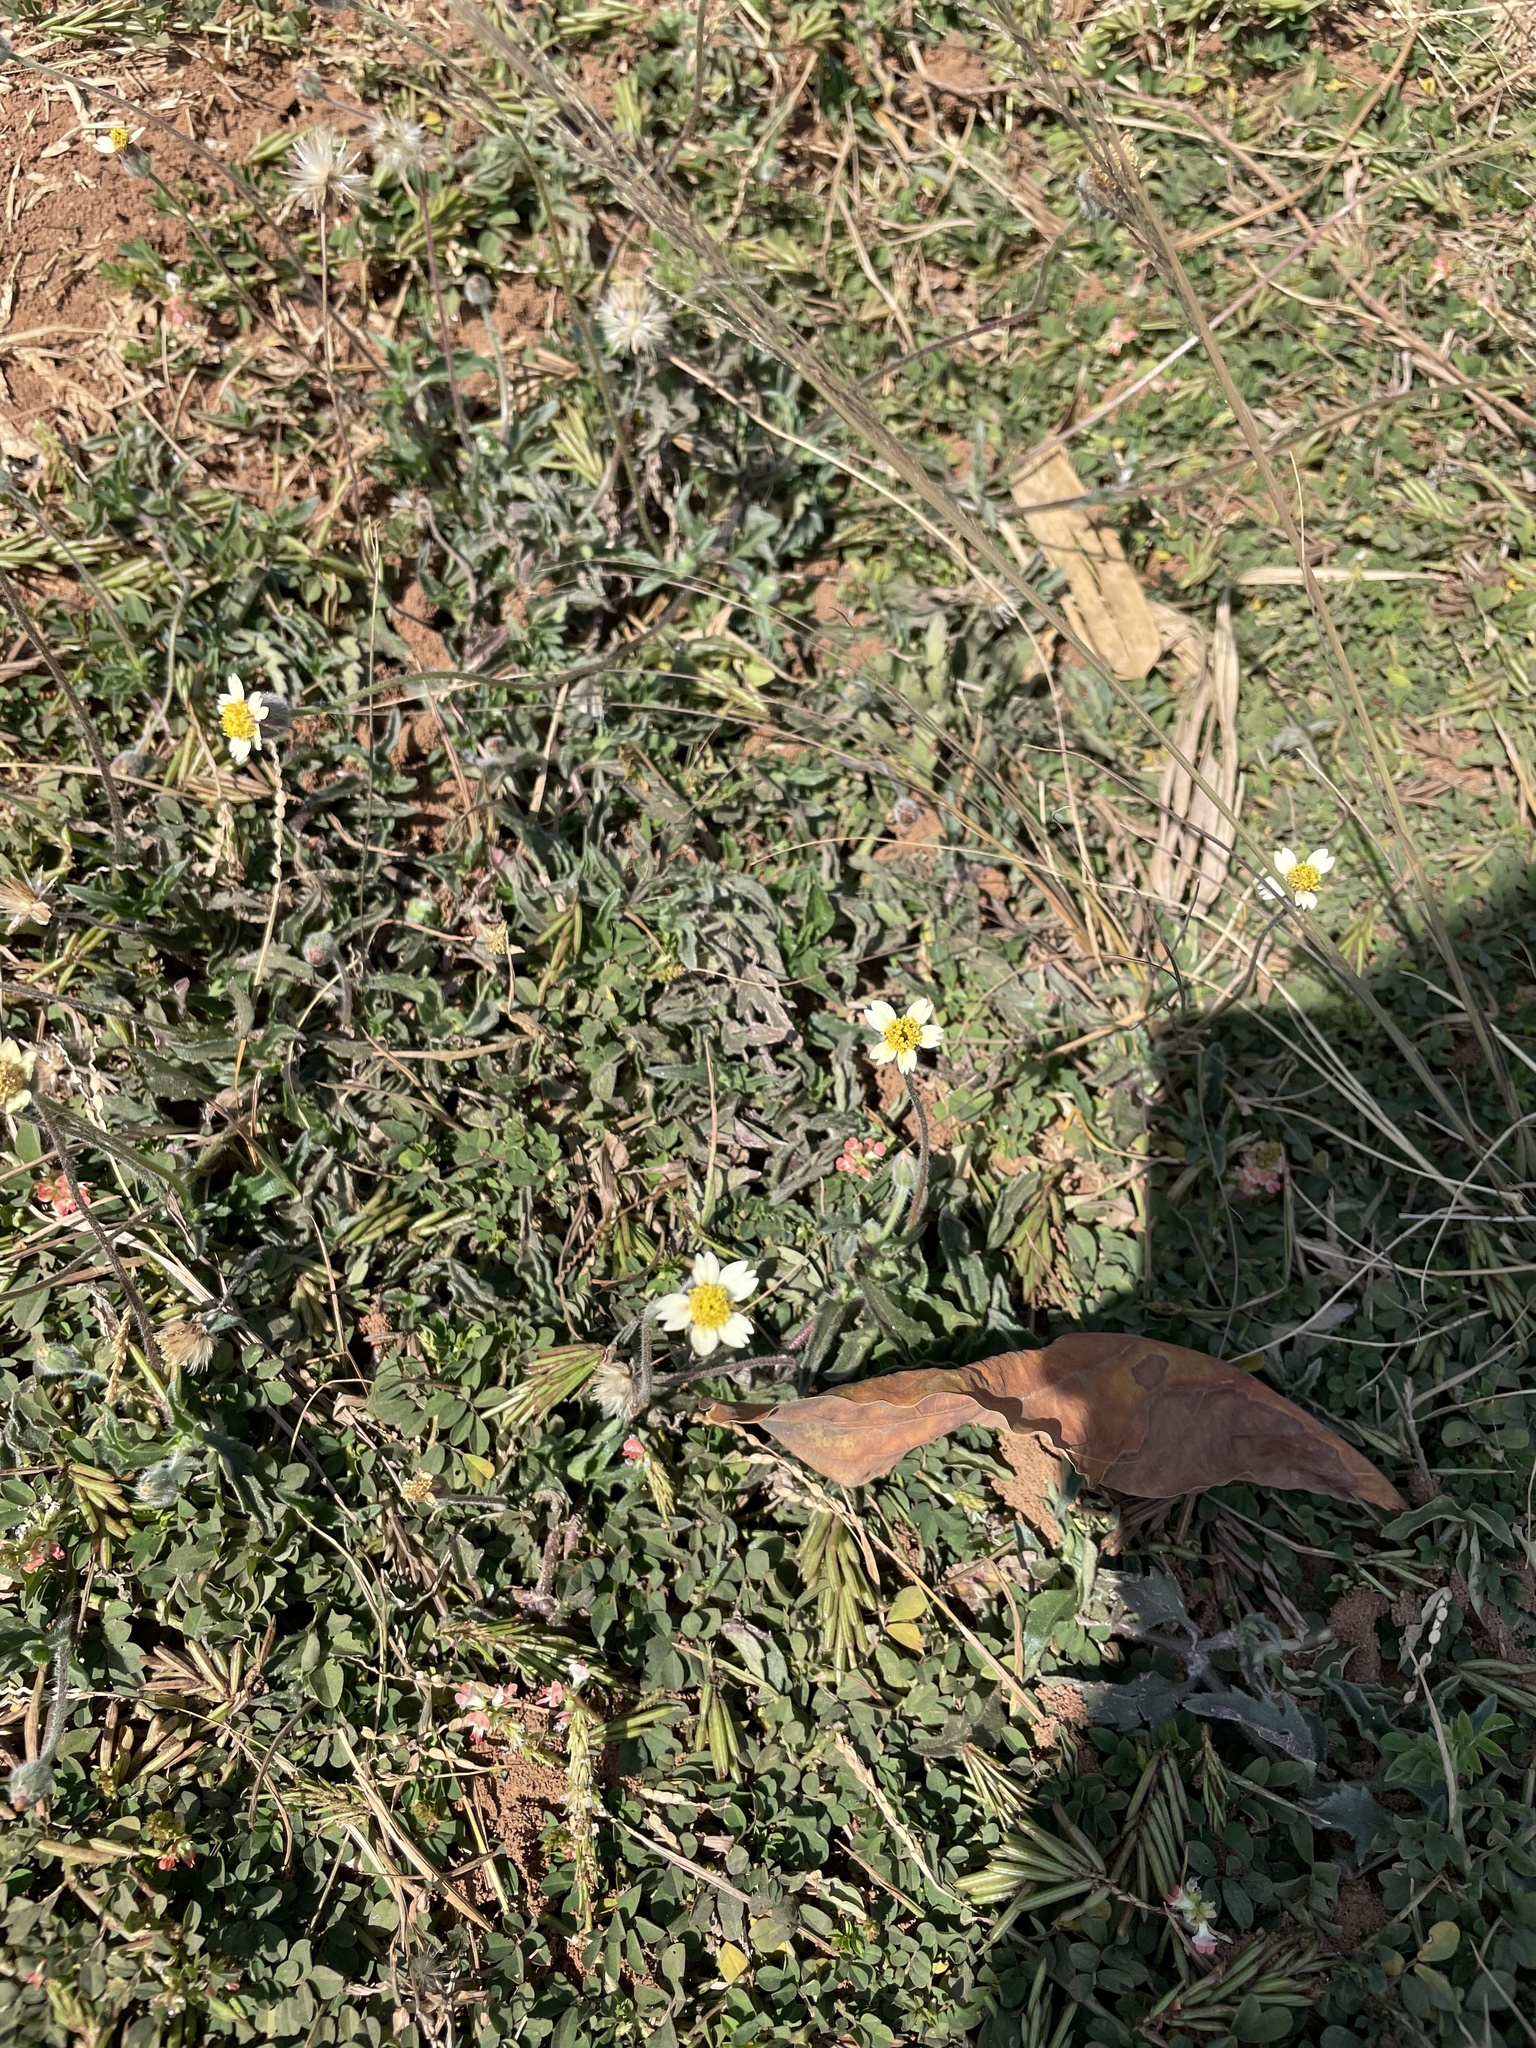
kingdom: Plantae
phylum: Tracheophyta
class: Magnoliopsida
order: Asterales
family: Asteraceae
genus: Tridax
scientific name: Tridax procumbens
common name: Coatbuttons
